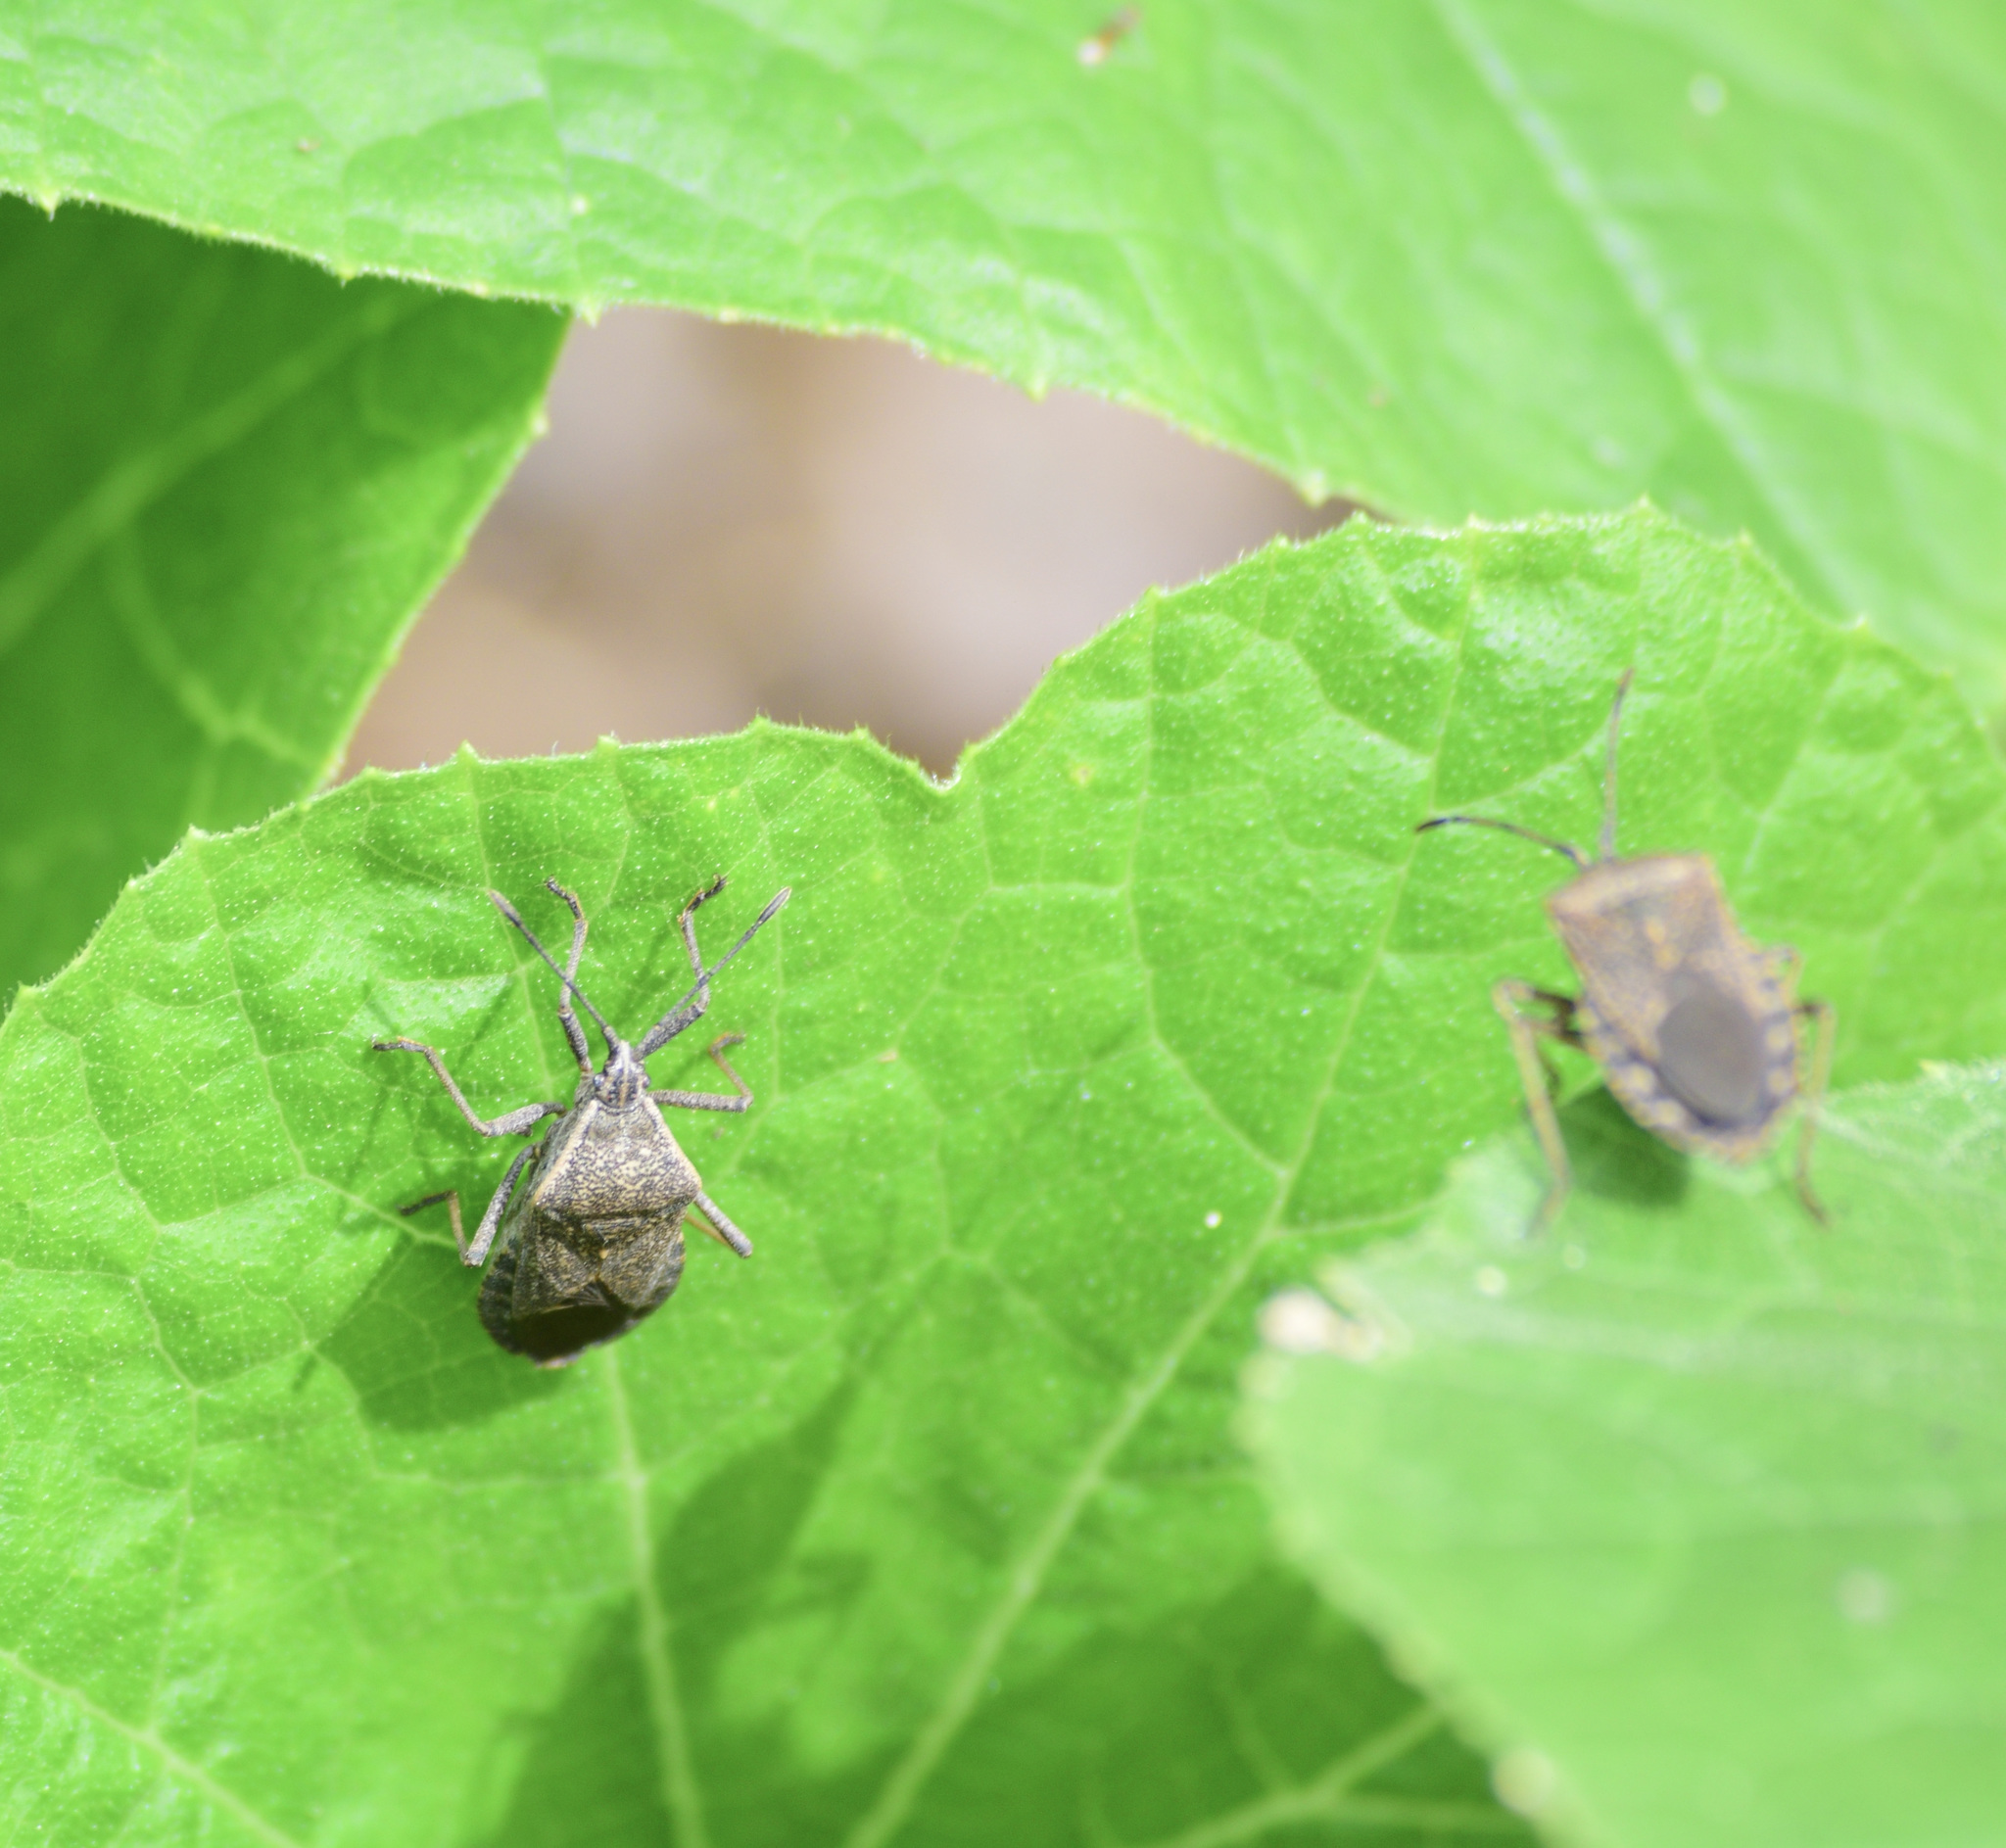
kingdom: Animalia
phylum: Arthropoda
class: Insecta
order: Hemiptera
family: Coreidae
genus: Anasa
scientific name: Anasa tristis
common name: Squash bug
